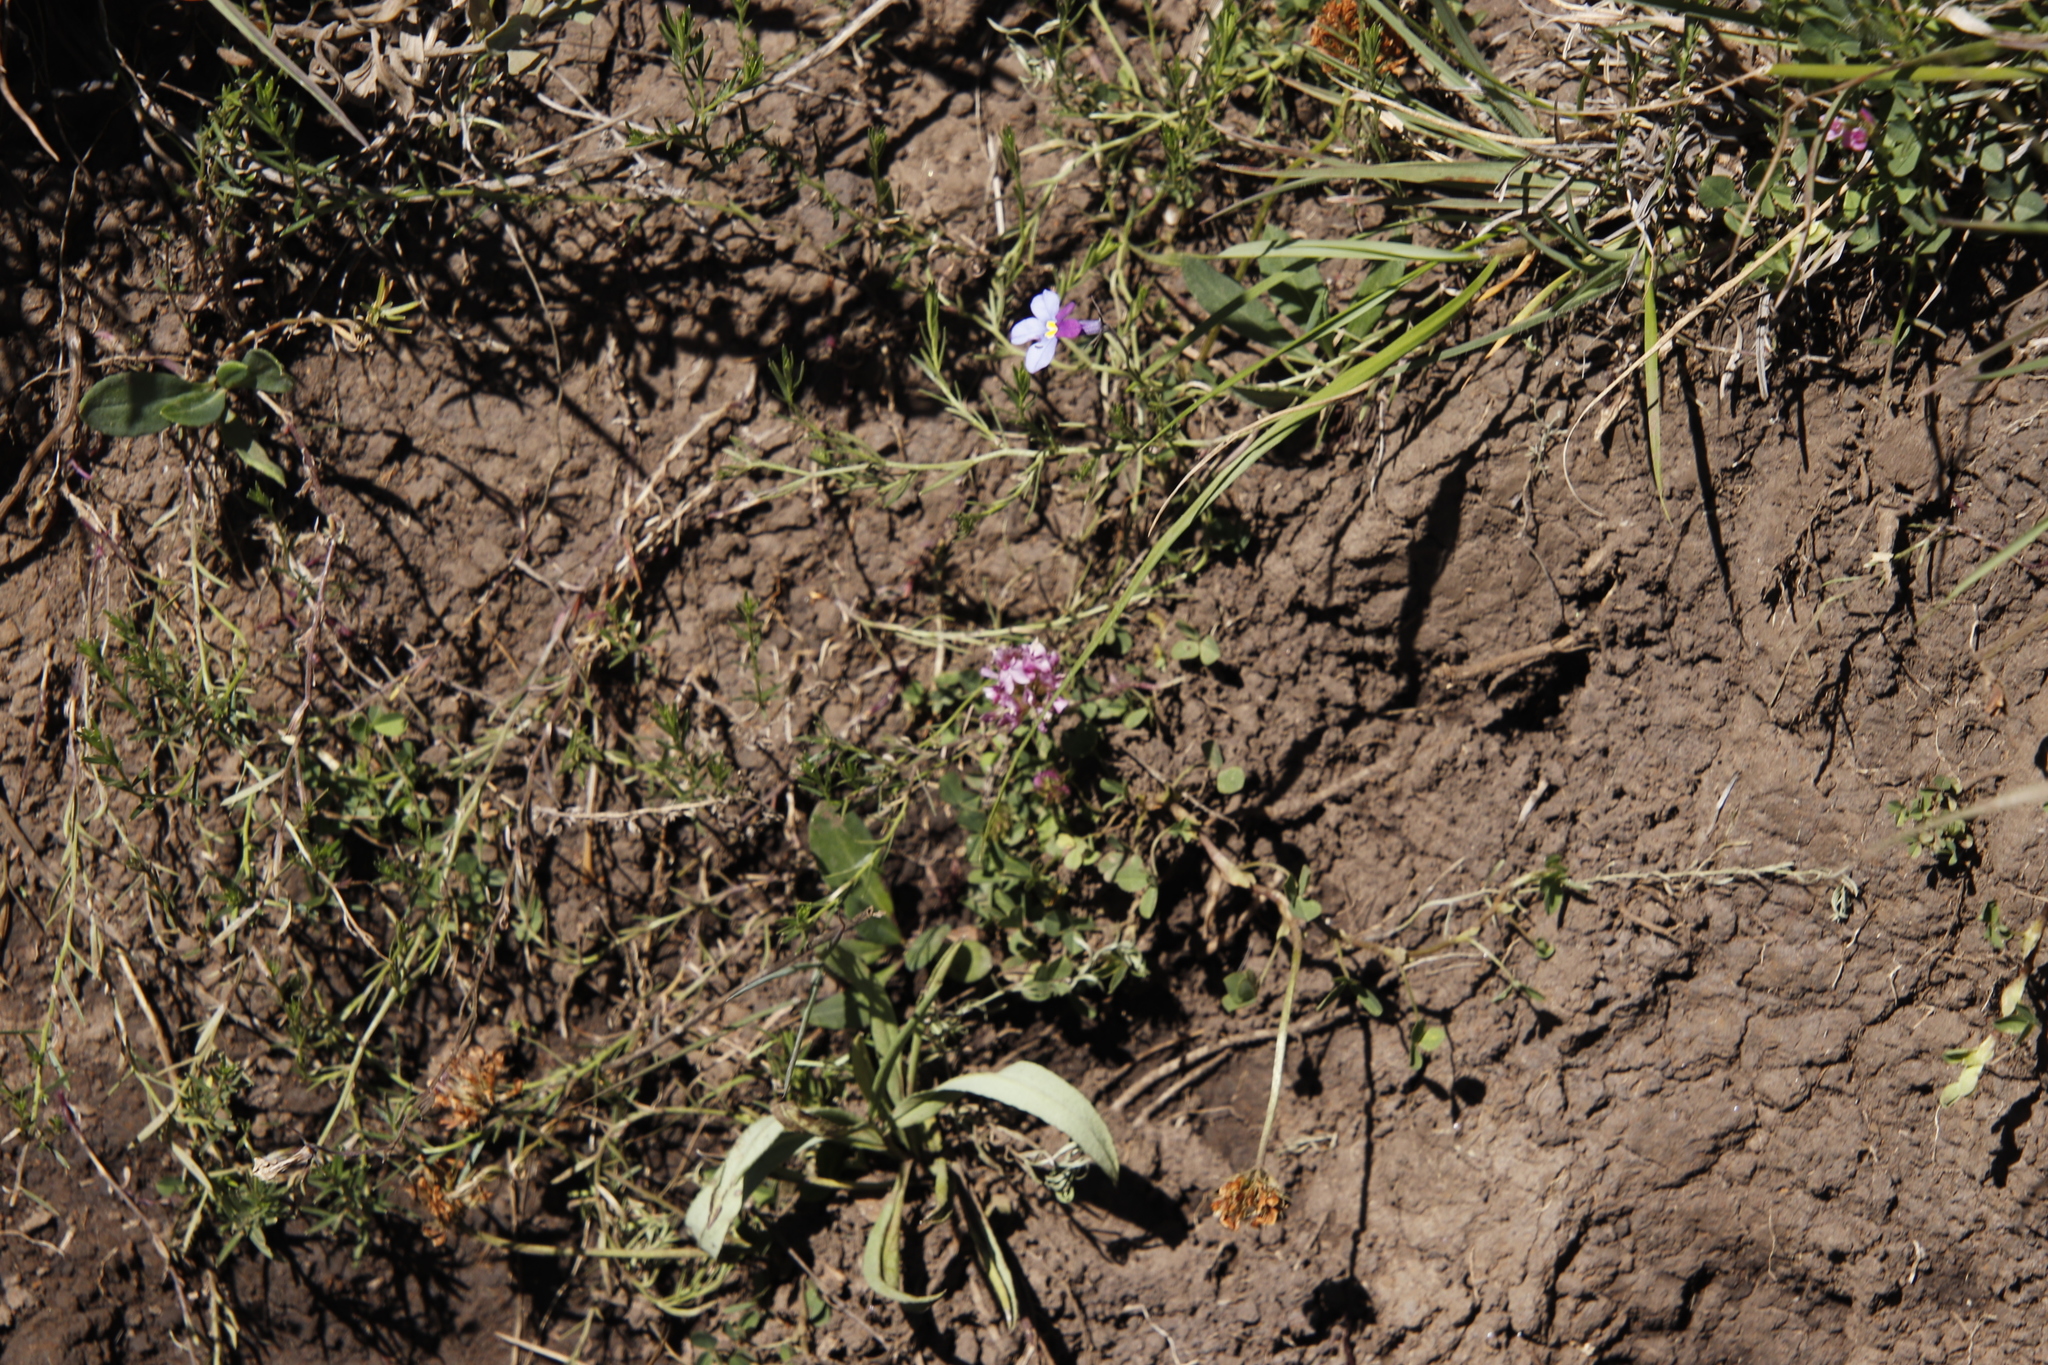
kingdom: Plantae
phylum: Tracheophyta
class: Magnoliopsida
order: Fabales
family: Fabaceae
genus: Trifolium
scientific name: Trifolium burchellianum
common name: Burchell's clover
